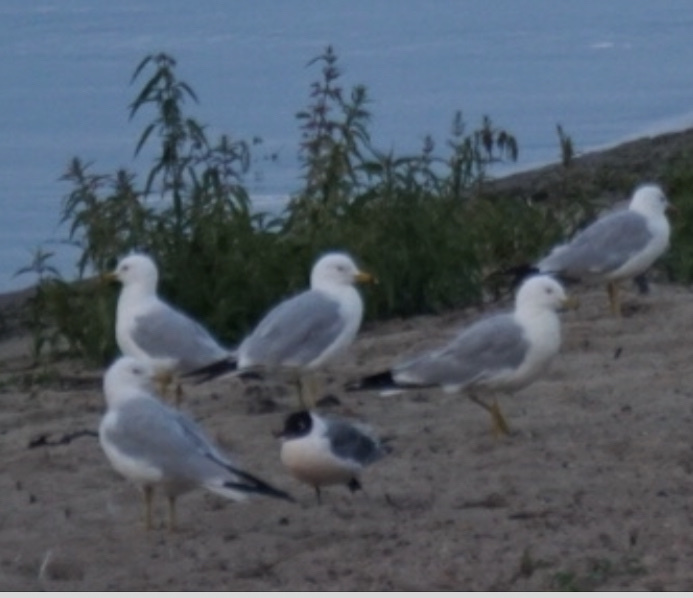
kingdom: Animalia
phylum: Chordata
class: Aves
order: Charadriiformes
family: Laridae
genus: Leucophaeus
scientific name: Leucophaeus pipixcan
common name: Franklin's gull
